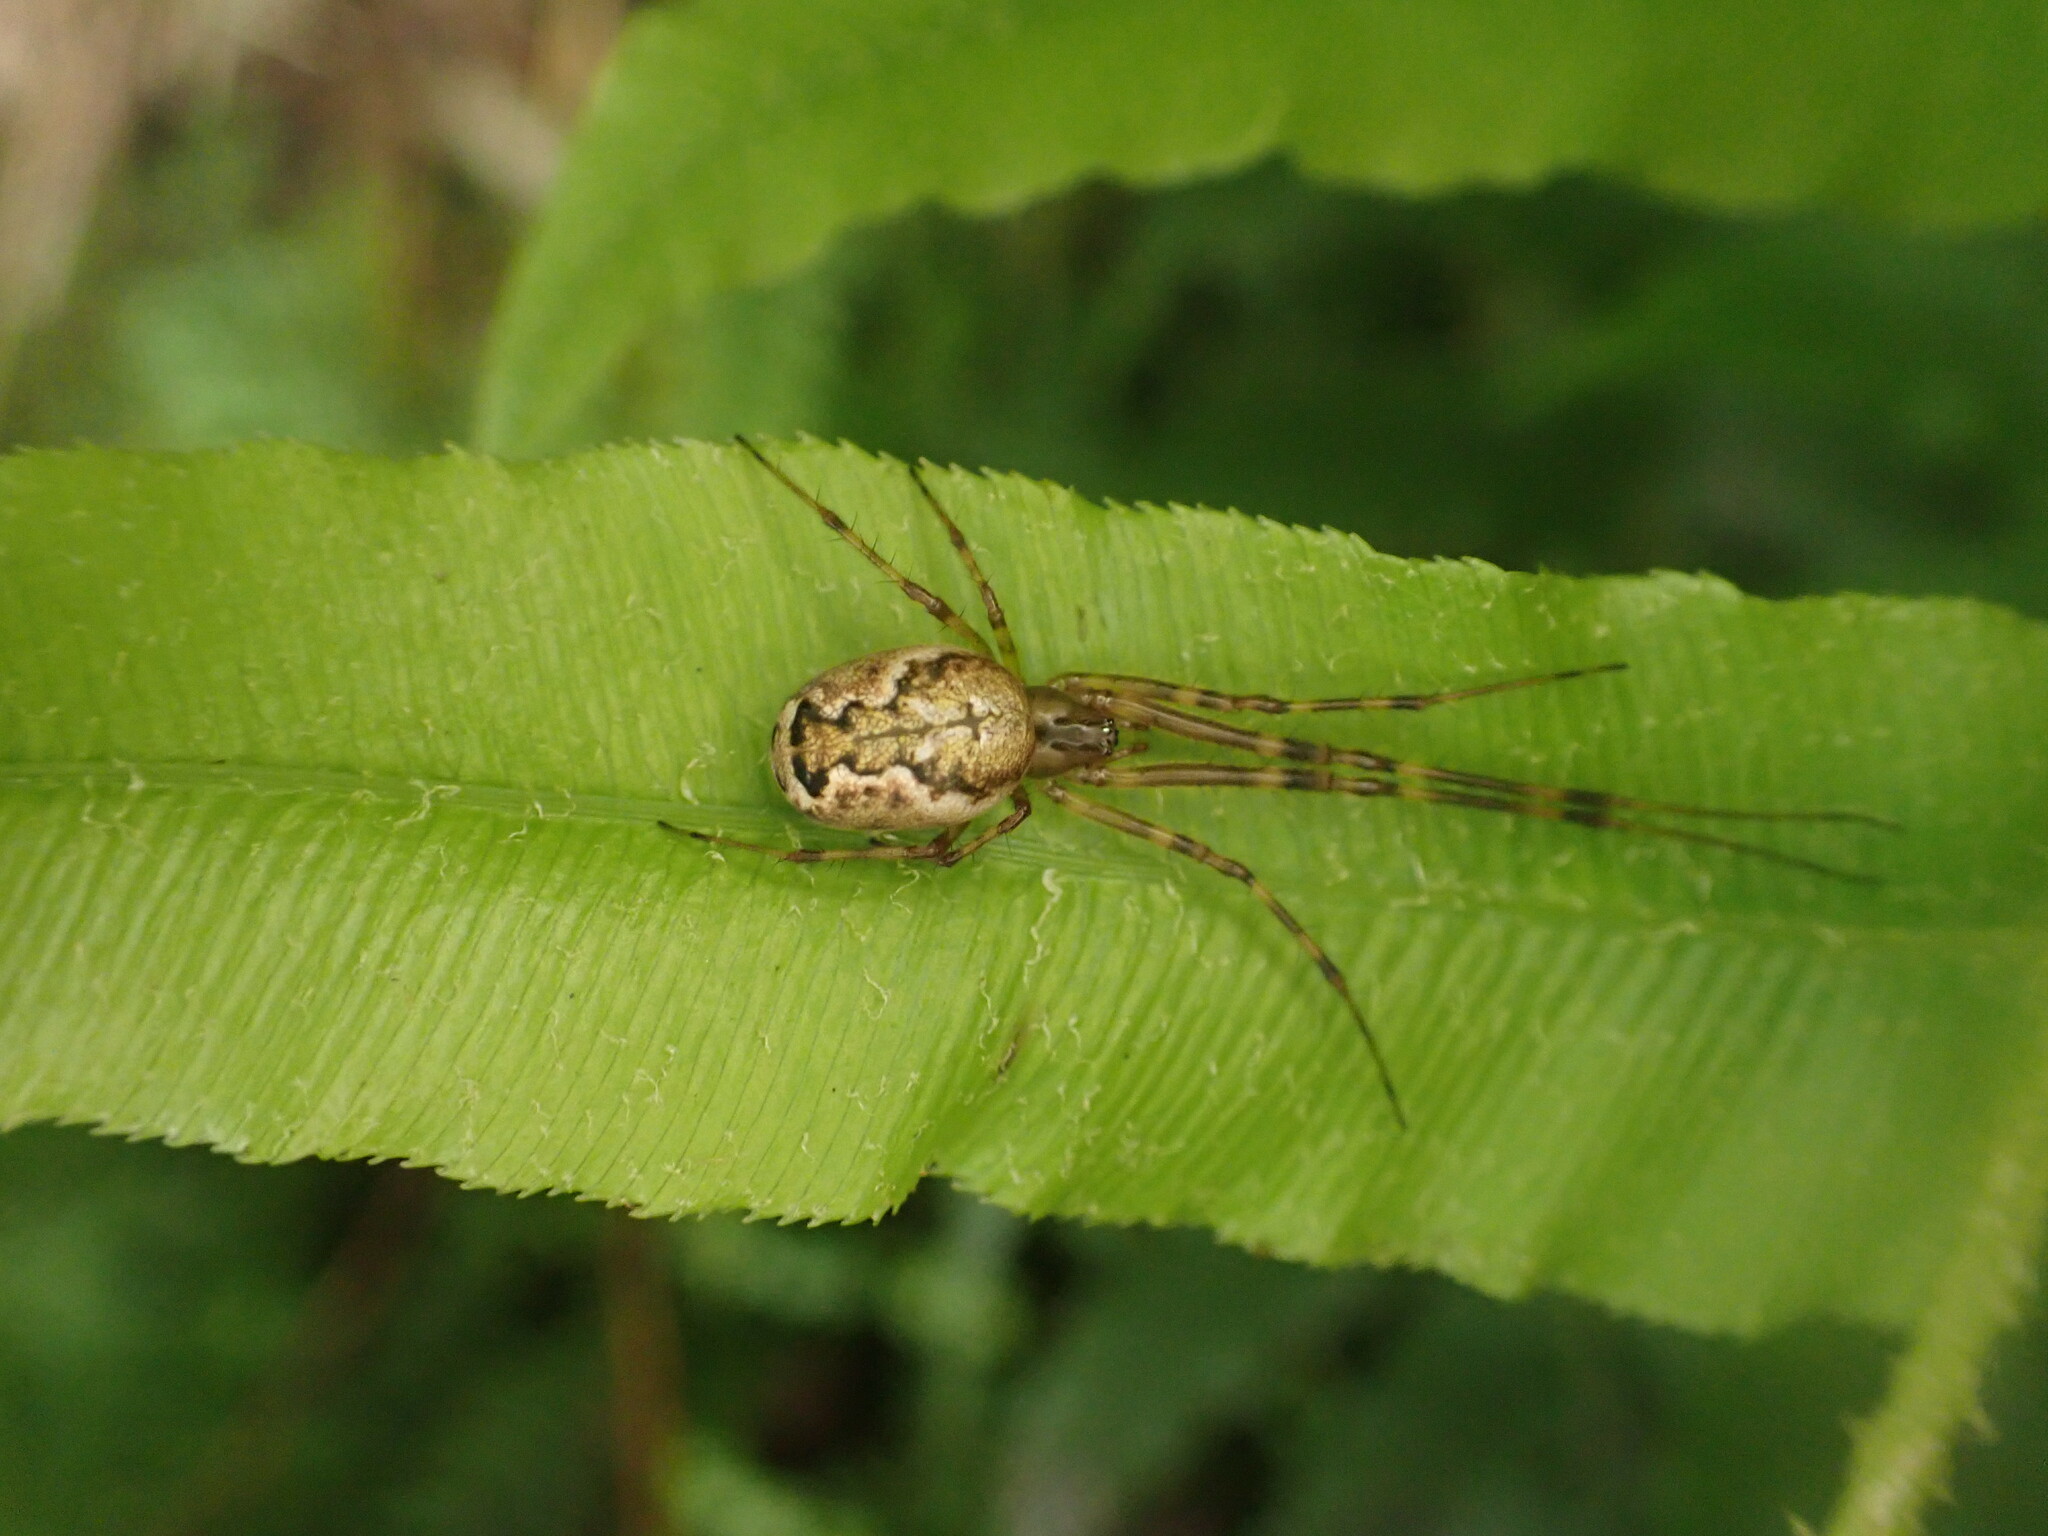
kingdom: Animalia
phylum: Arthropoda
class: Arachnida
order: Araneae
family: Tetragnathidae
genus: Nanometa
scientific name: Nanometa lagenifera
